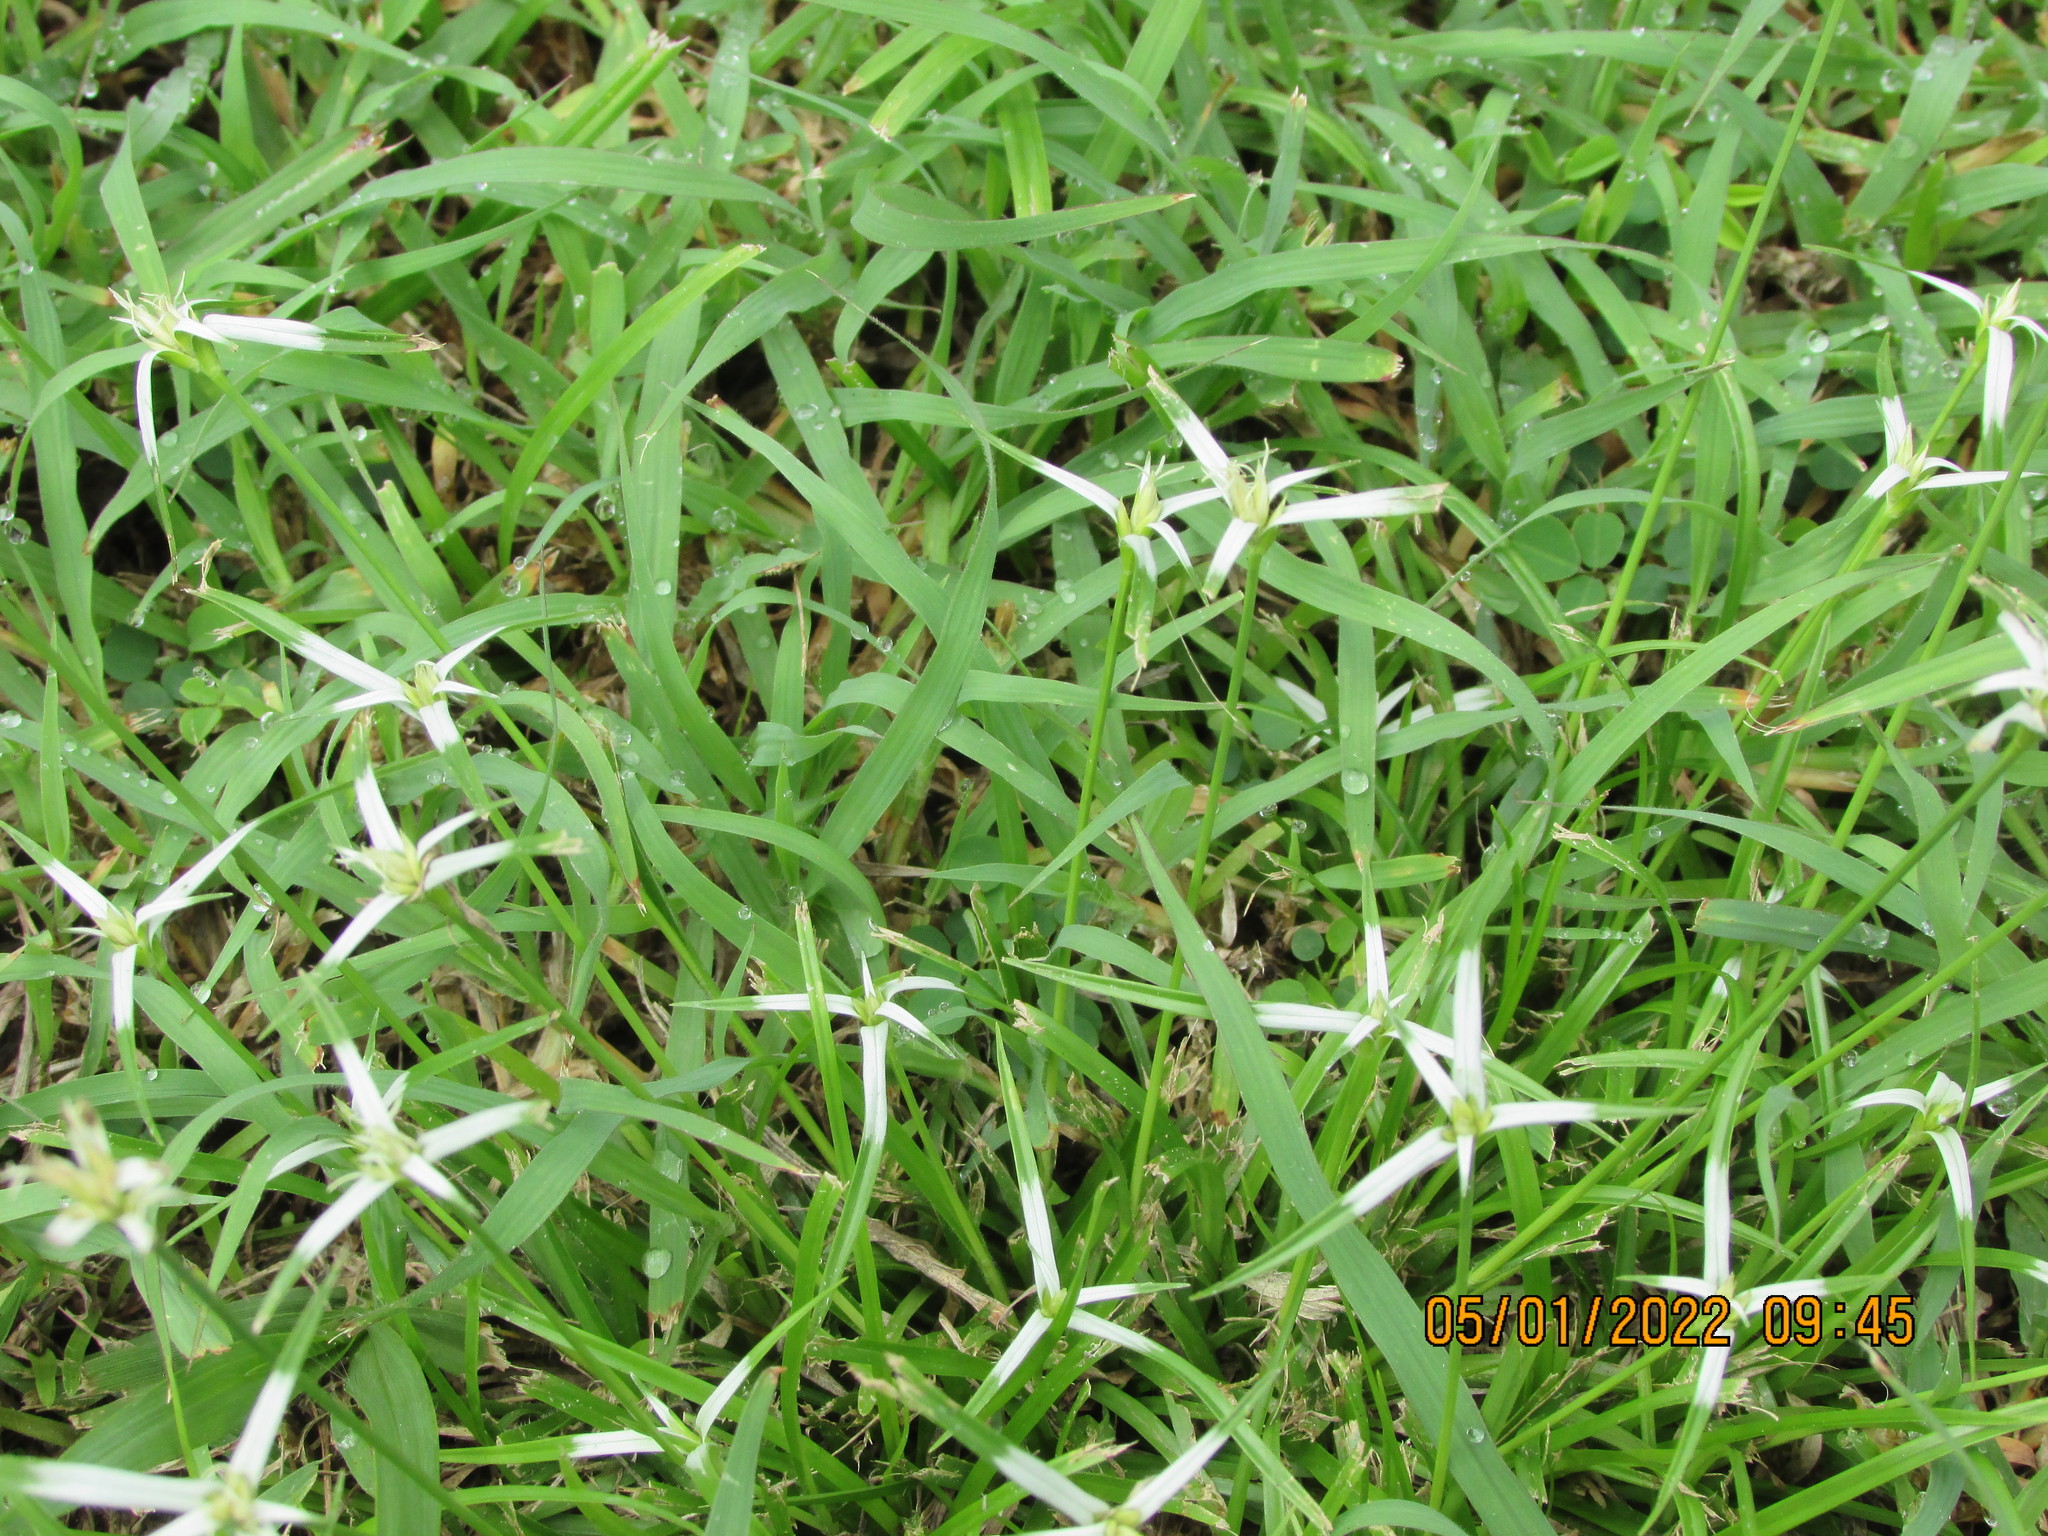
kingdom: Plantae
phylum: Tracheophyta
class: Liliopsida
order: Poales
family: Cyperaceae
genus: Rhynchospora
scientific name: Rhynchospora colorata
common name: Star sedge
